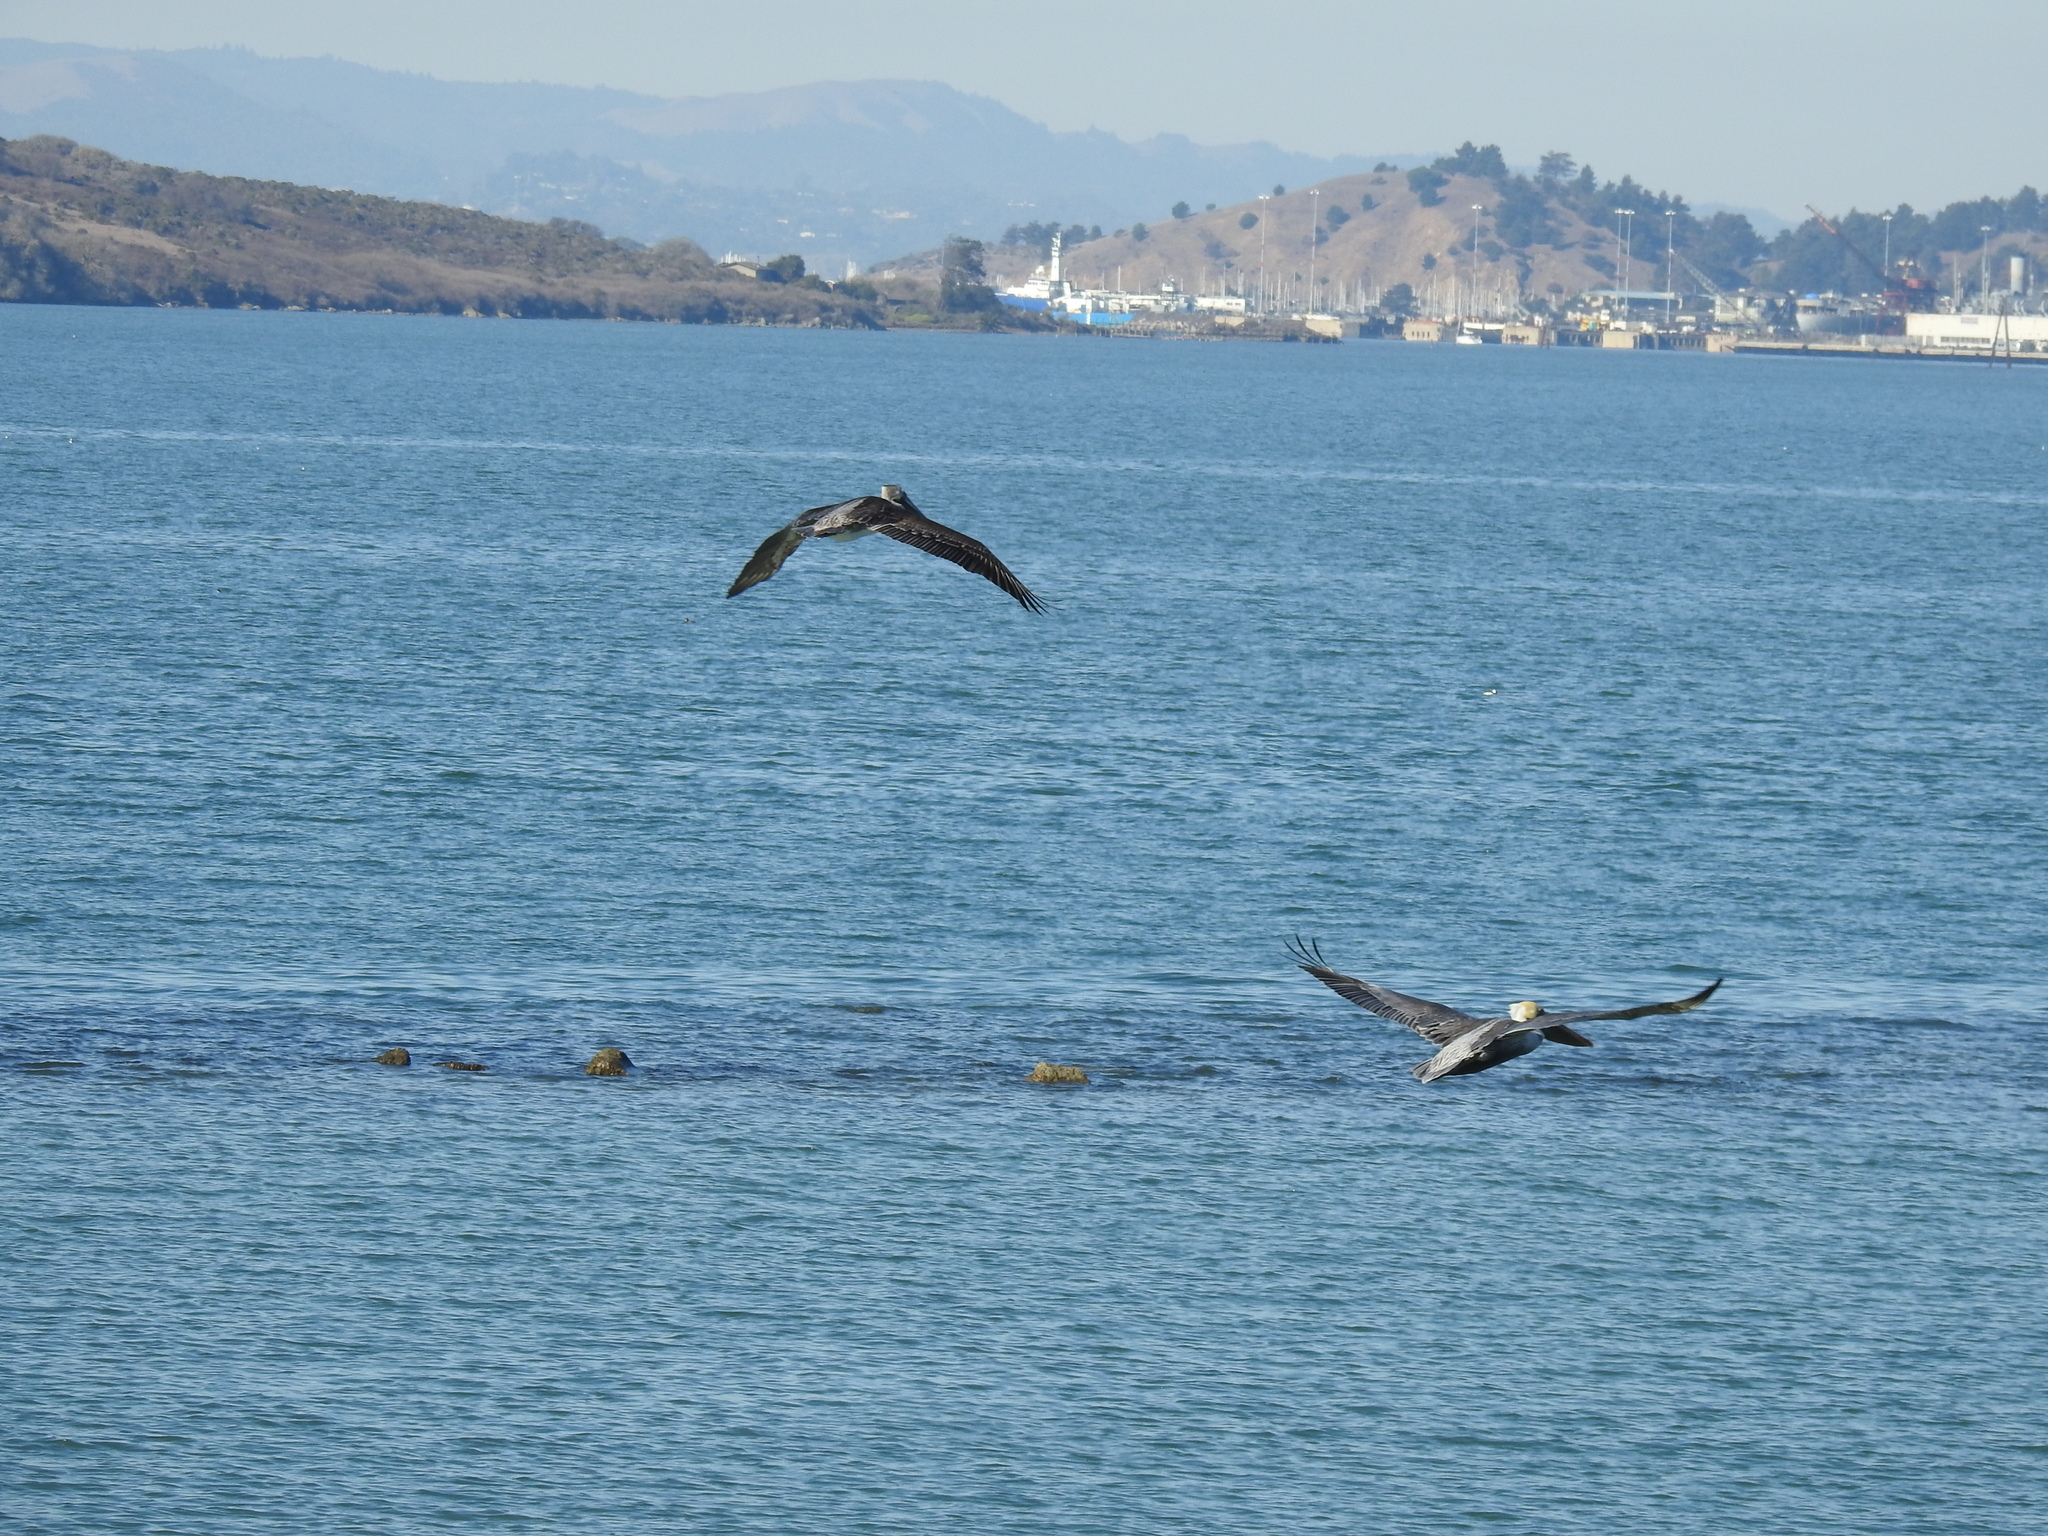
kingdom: Animalia
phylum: Chordata
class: Aves
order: Pelecaniformes
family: Pelecanidae
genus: Pelecanus
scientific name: Pelecanus occidentalis
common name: Brown pelican
